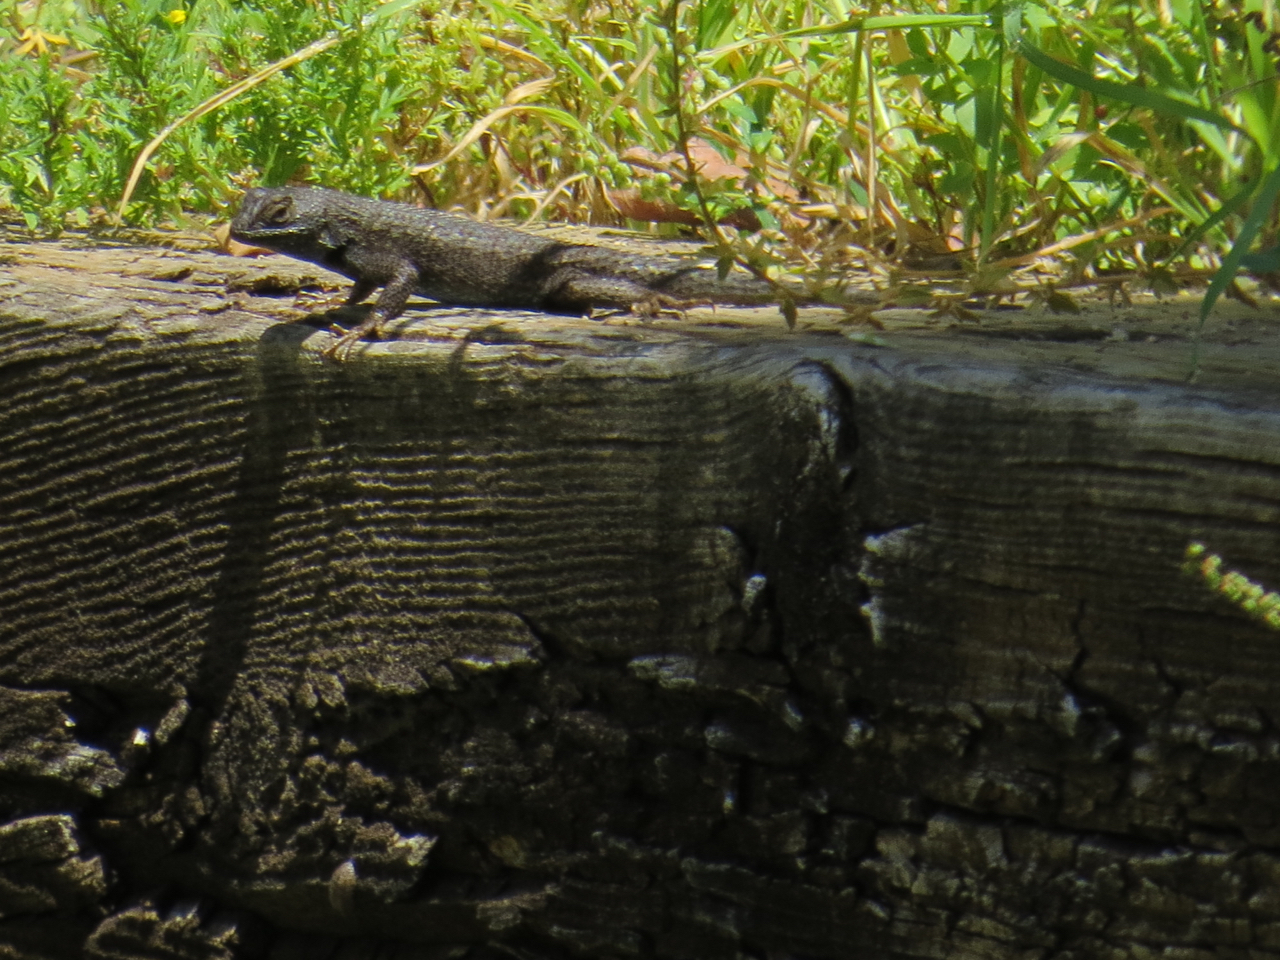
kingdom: Animalia
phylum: Chordata
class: Squamata
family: Phrynosomatidae
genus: Sceloporus
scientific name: Sceloporus occidentalis
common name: Western fence lizard
